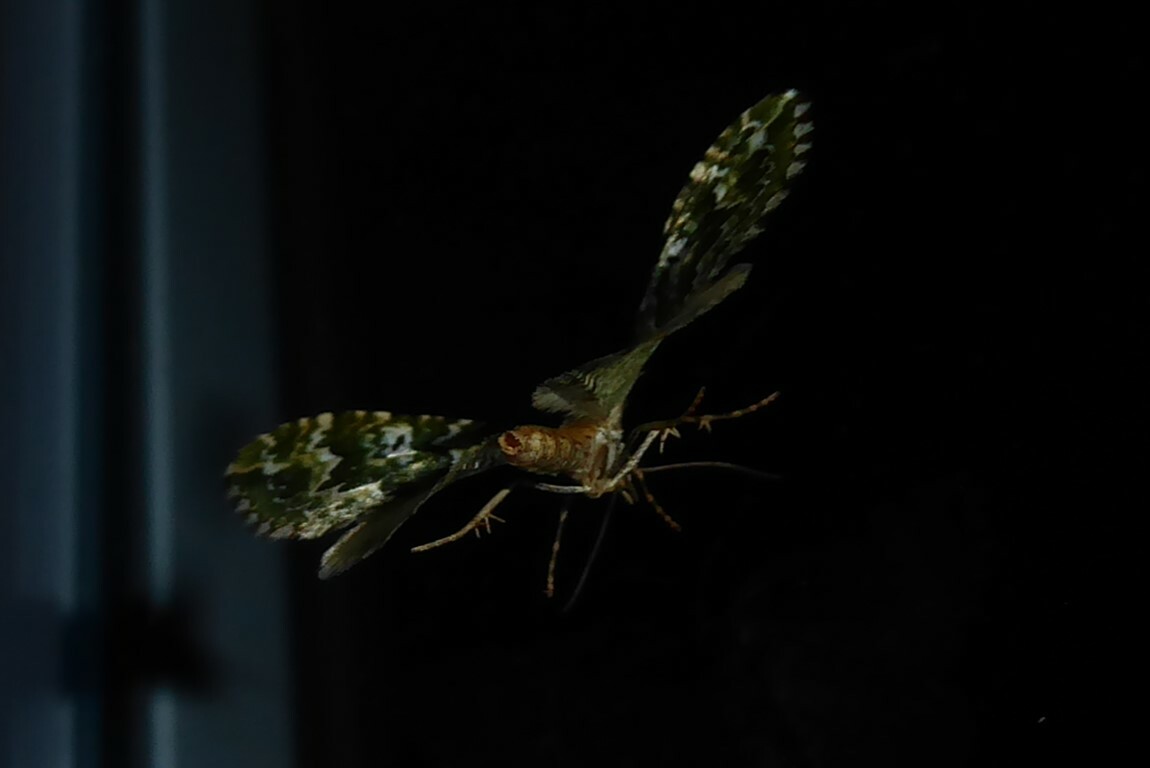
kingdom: Animalia
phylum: Arthropoda
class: Insecta
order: Lepidoptera
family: Geometridae
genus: Asaphodes
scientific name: Asaphodes beata
